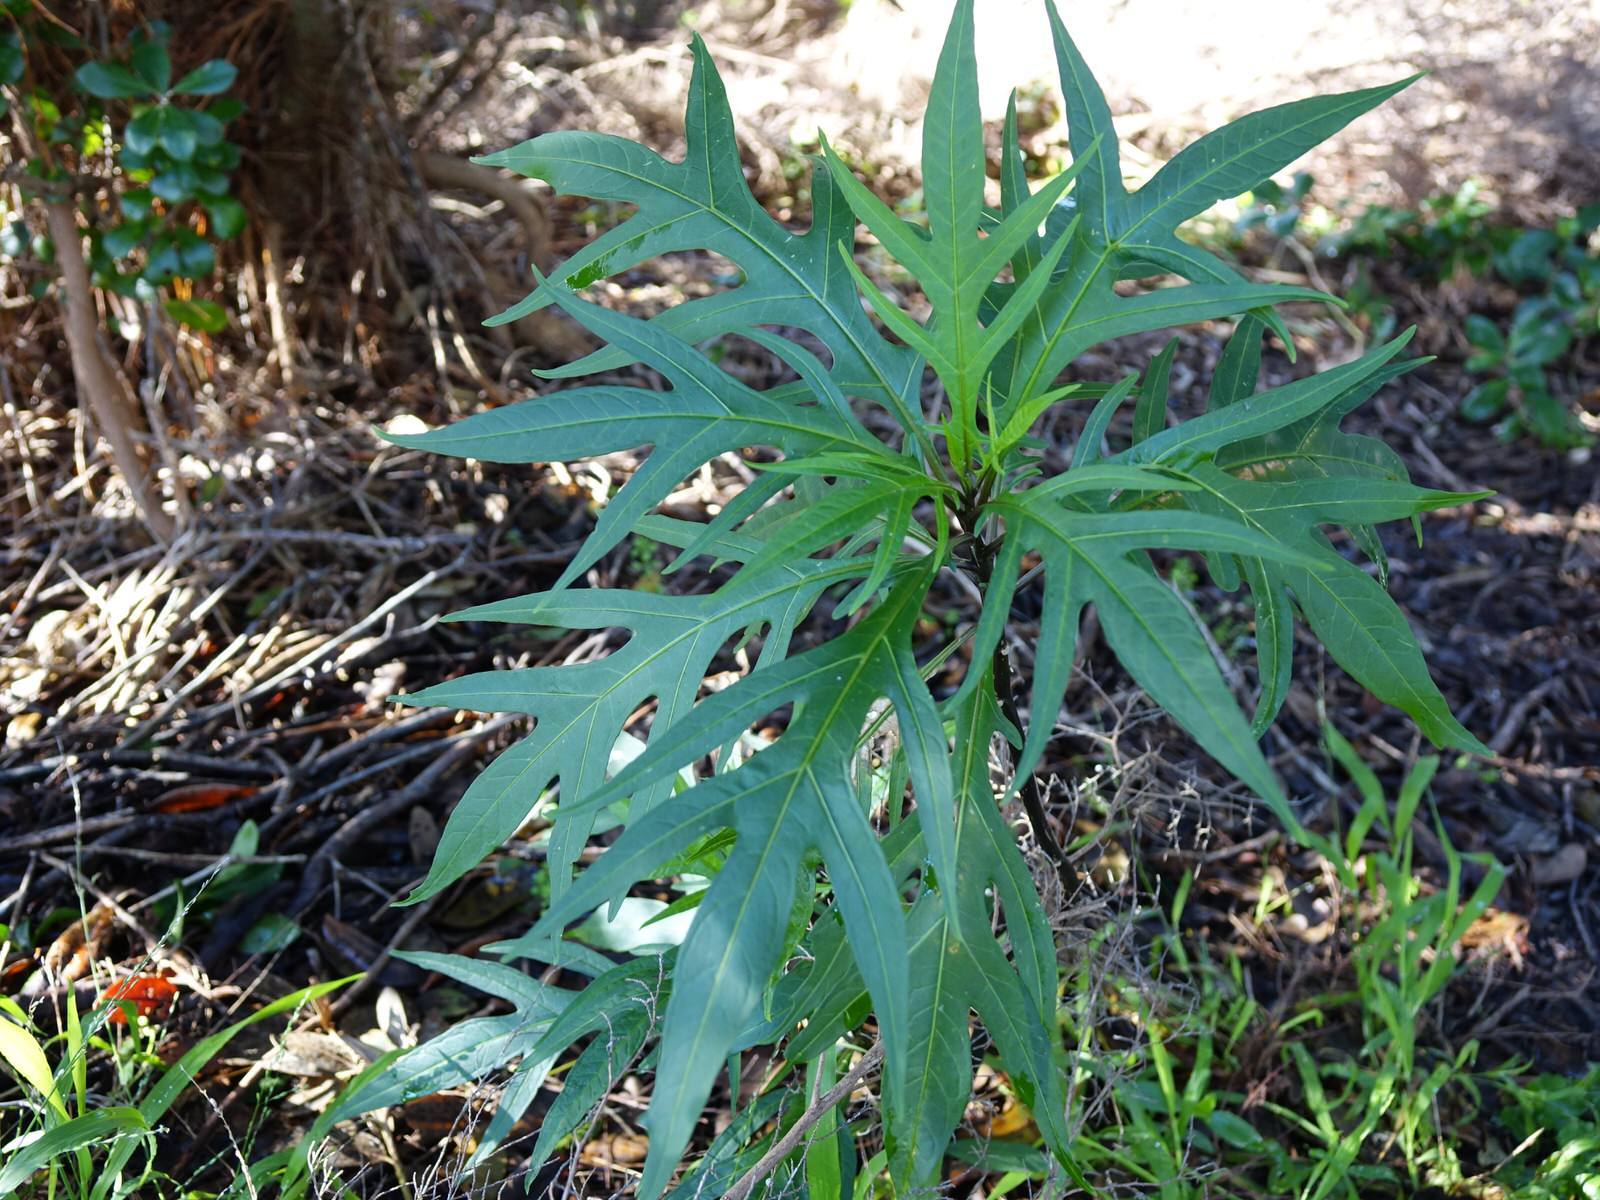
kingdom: Plantae
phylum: Tracheophyta
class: Magnoliopsida
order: Solanales
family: Solanaceae
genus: Solanum
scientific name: Solanum
